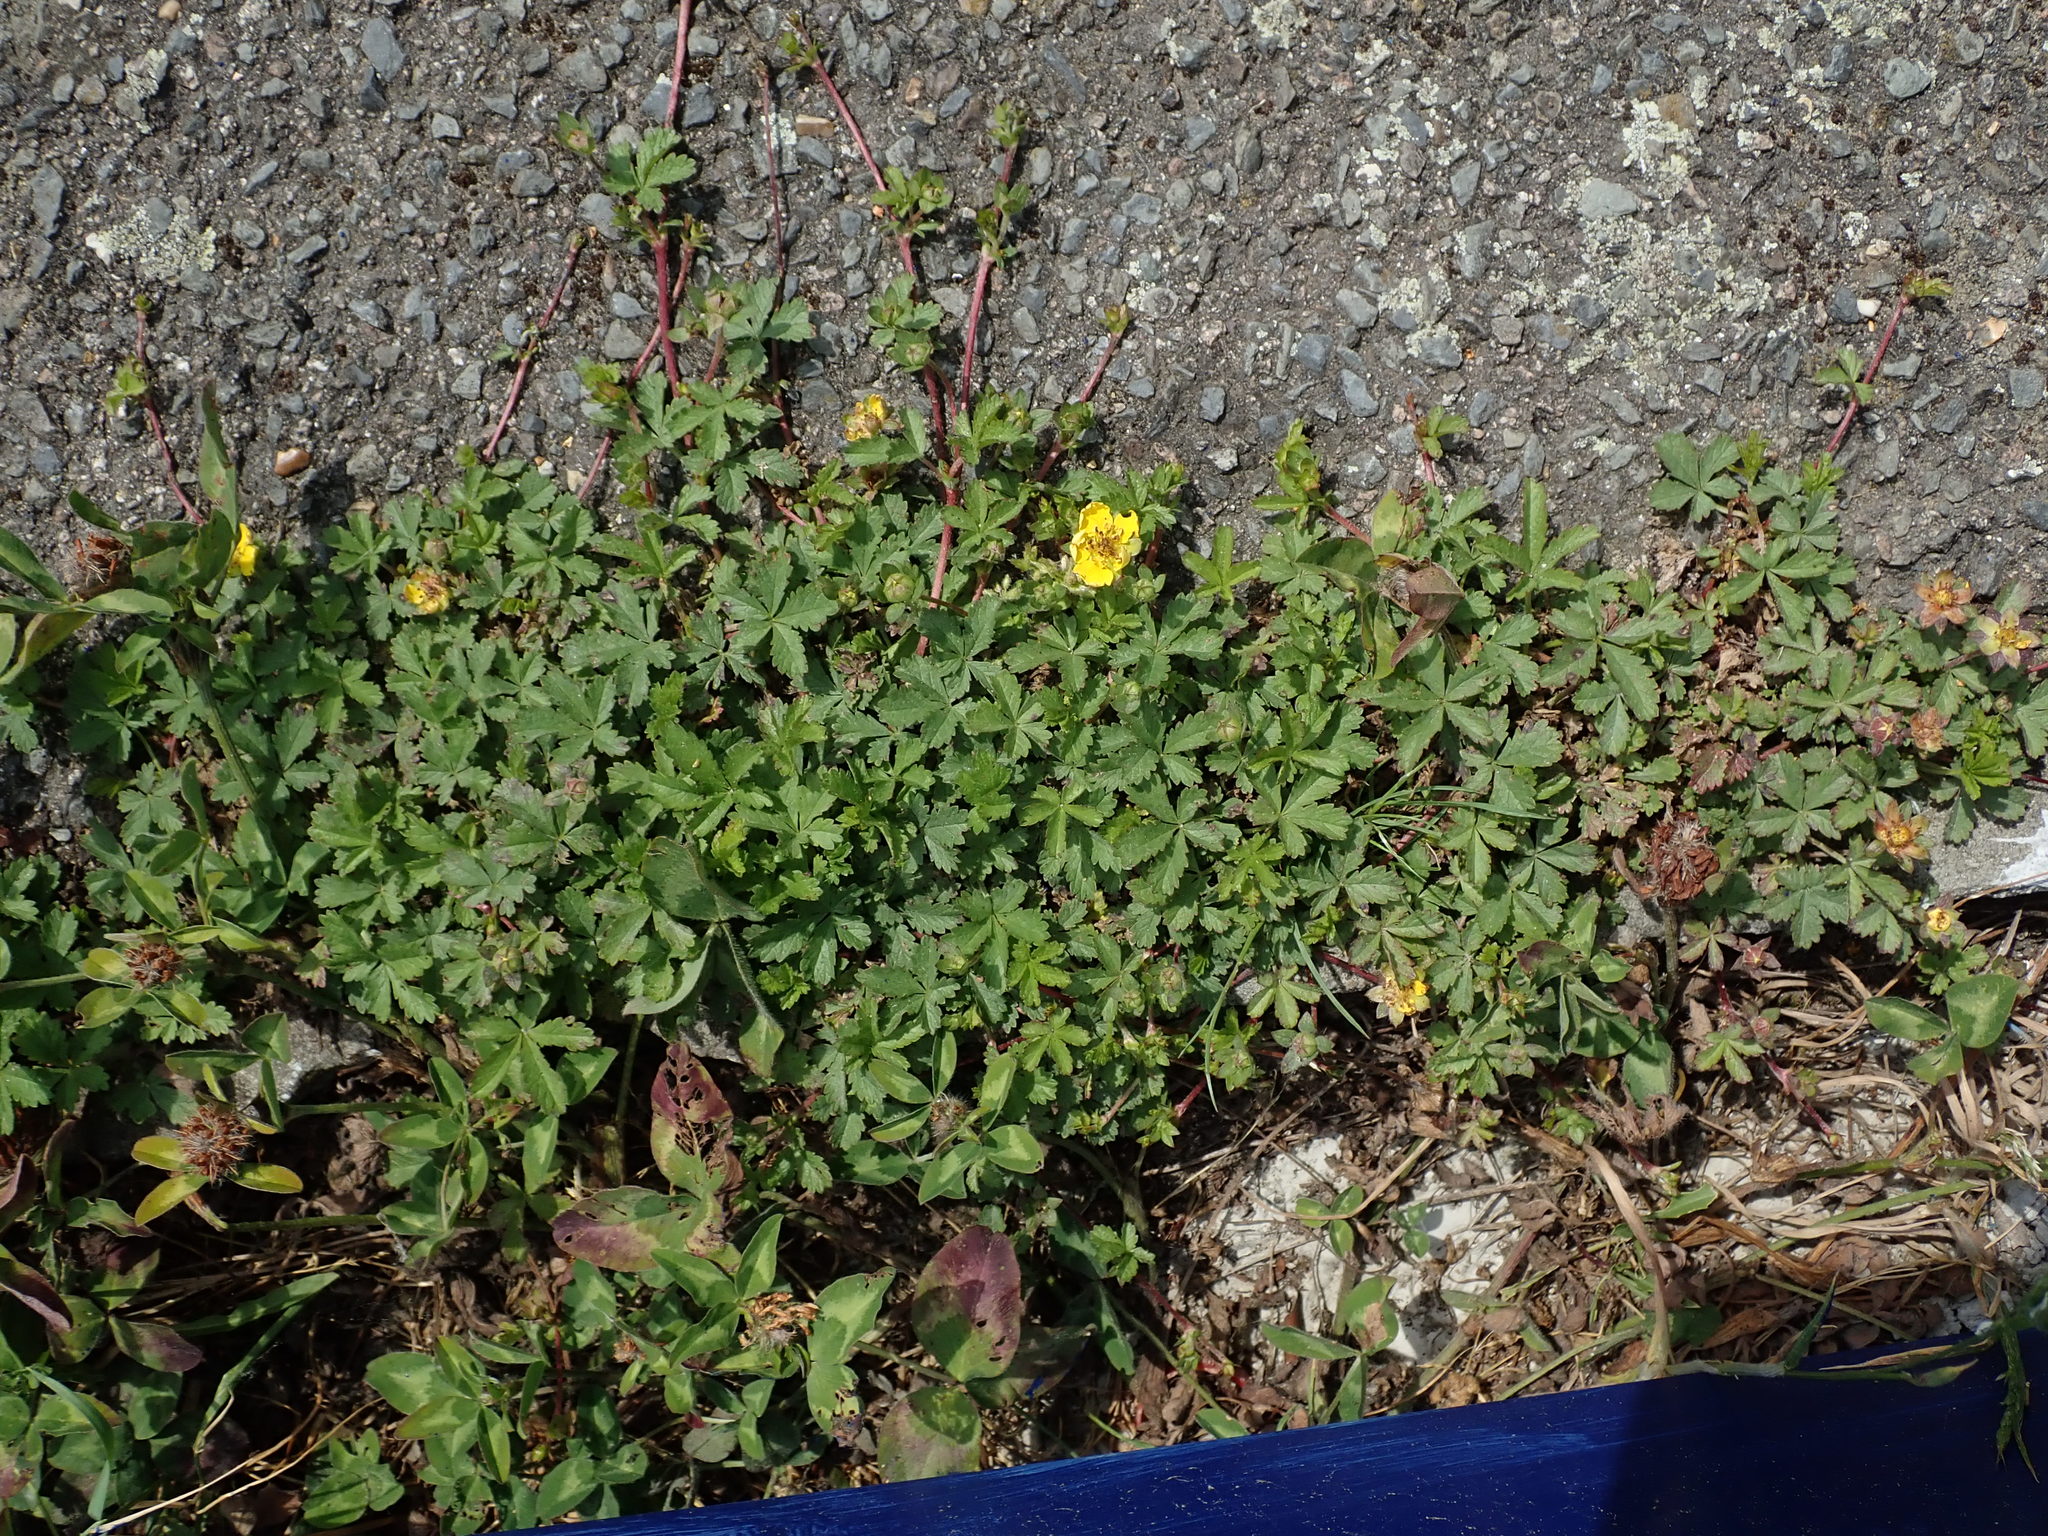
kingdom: Plantae
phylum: Tracheophyta
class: Magnoliopsida
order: Rosales
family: Rosaceae
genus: Potentilla
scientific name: Potentilla reptans
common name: Creeping cinquefoil
